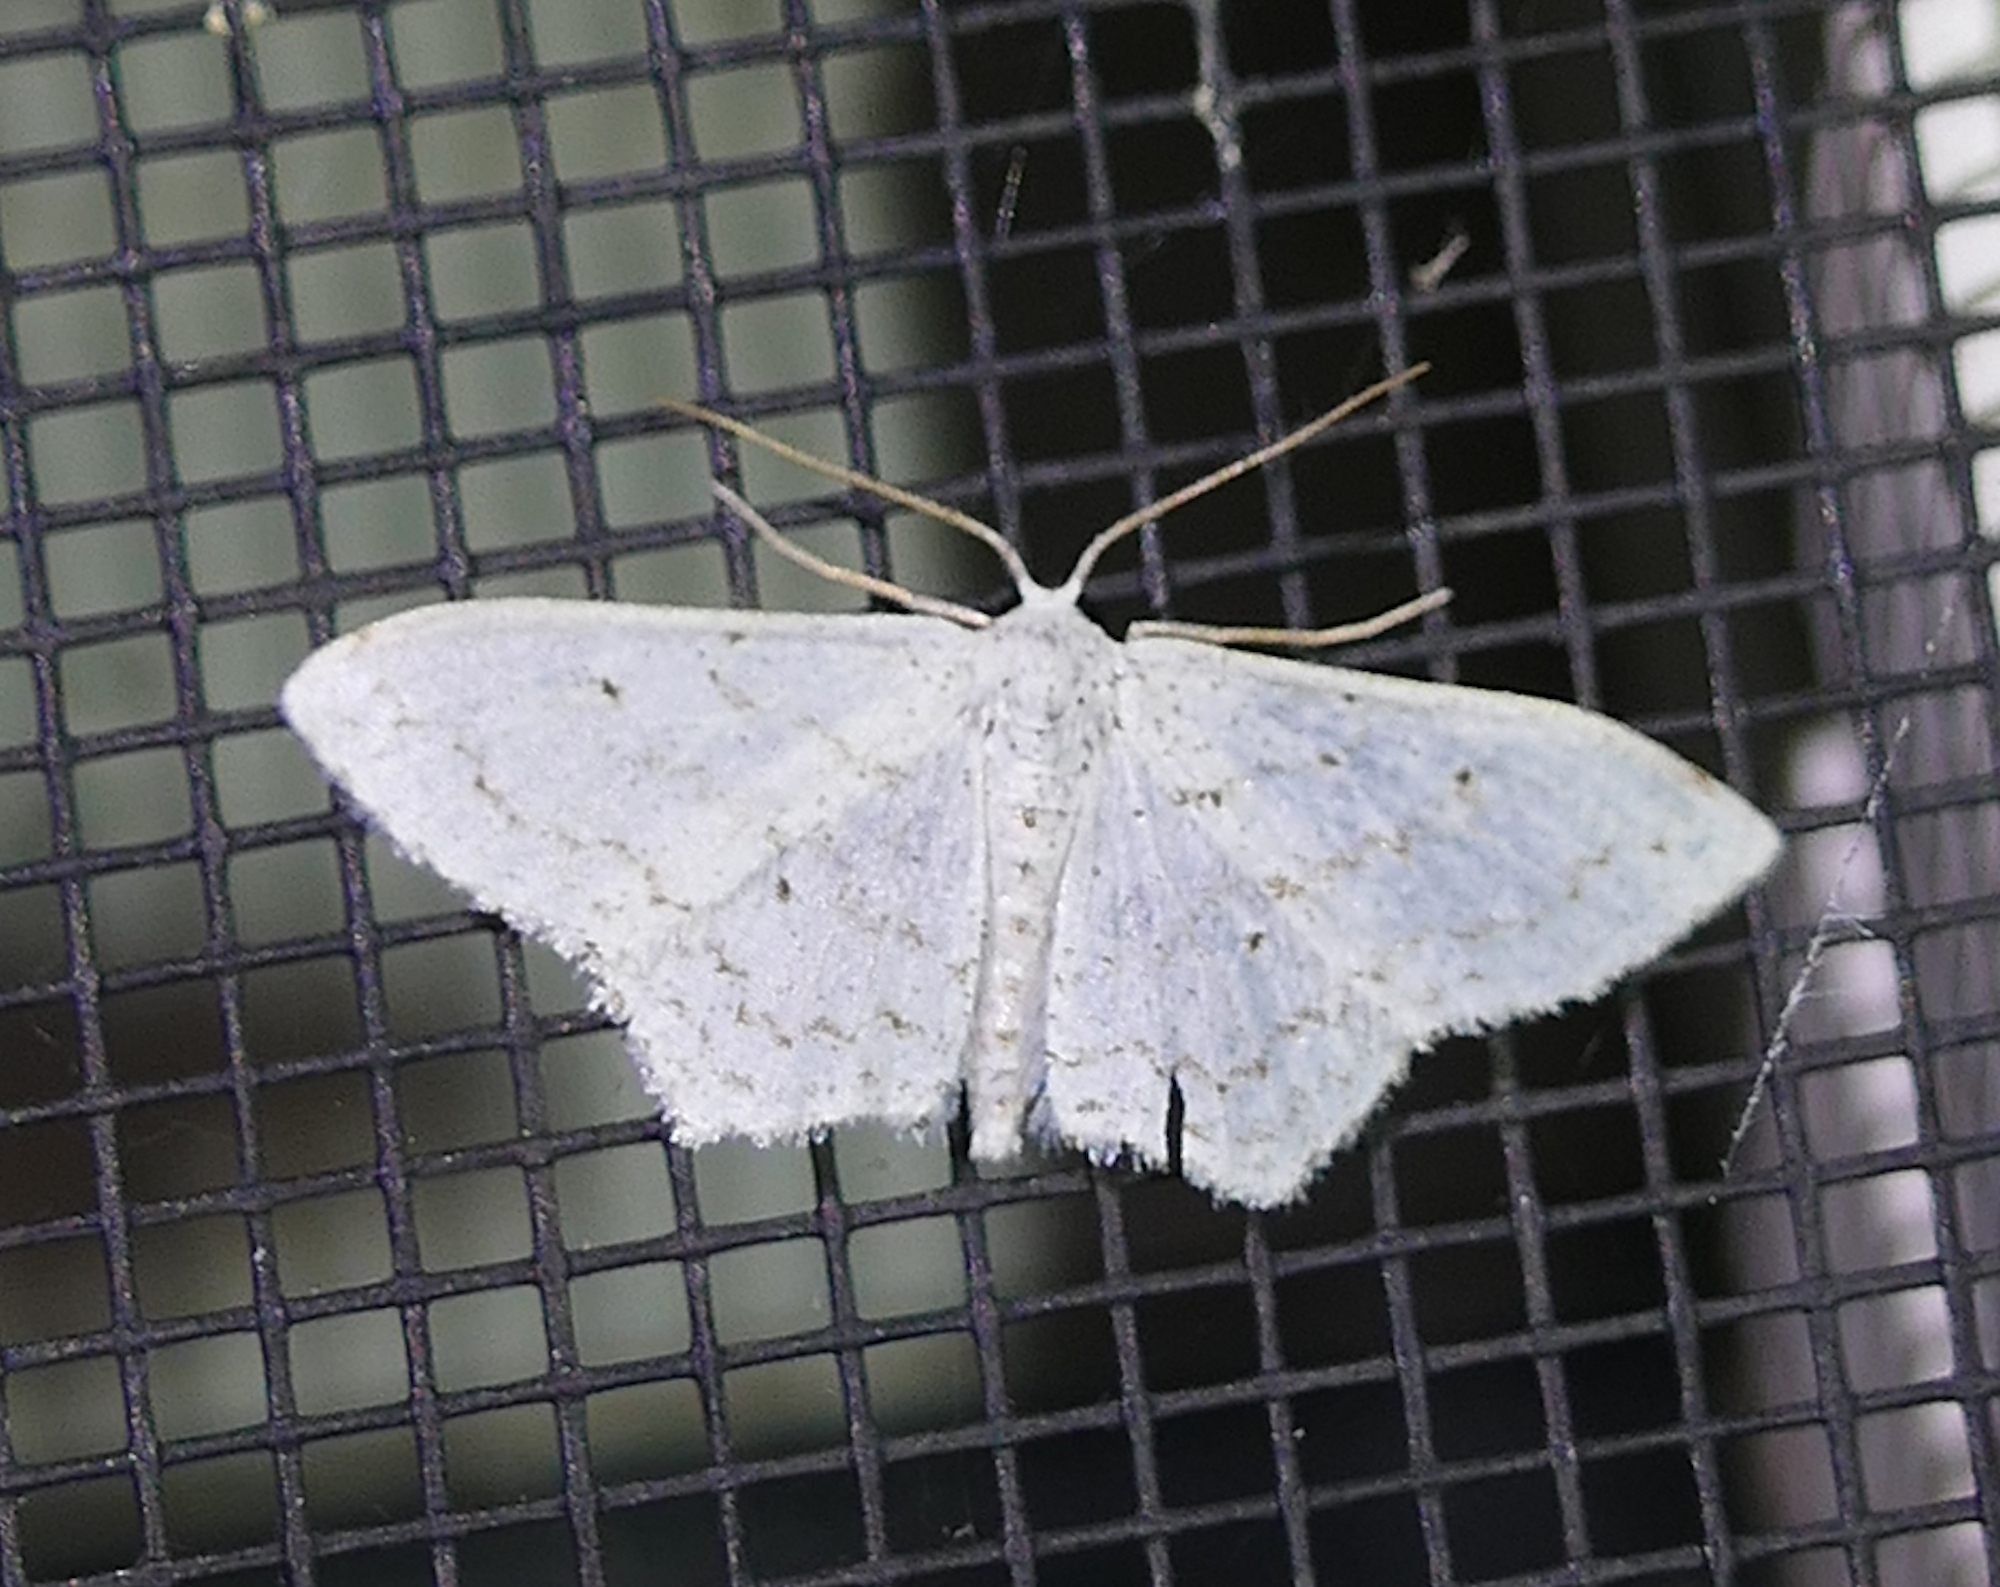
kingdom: Animalia
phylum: Arthropoda
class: Insecta
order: Lepidoptera
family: Geometridae
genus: Idaea
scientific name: Idaea tacturata
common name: Dot-lined wave
